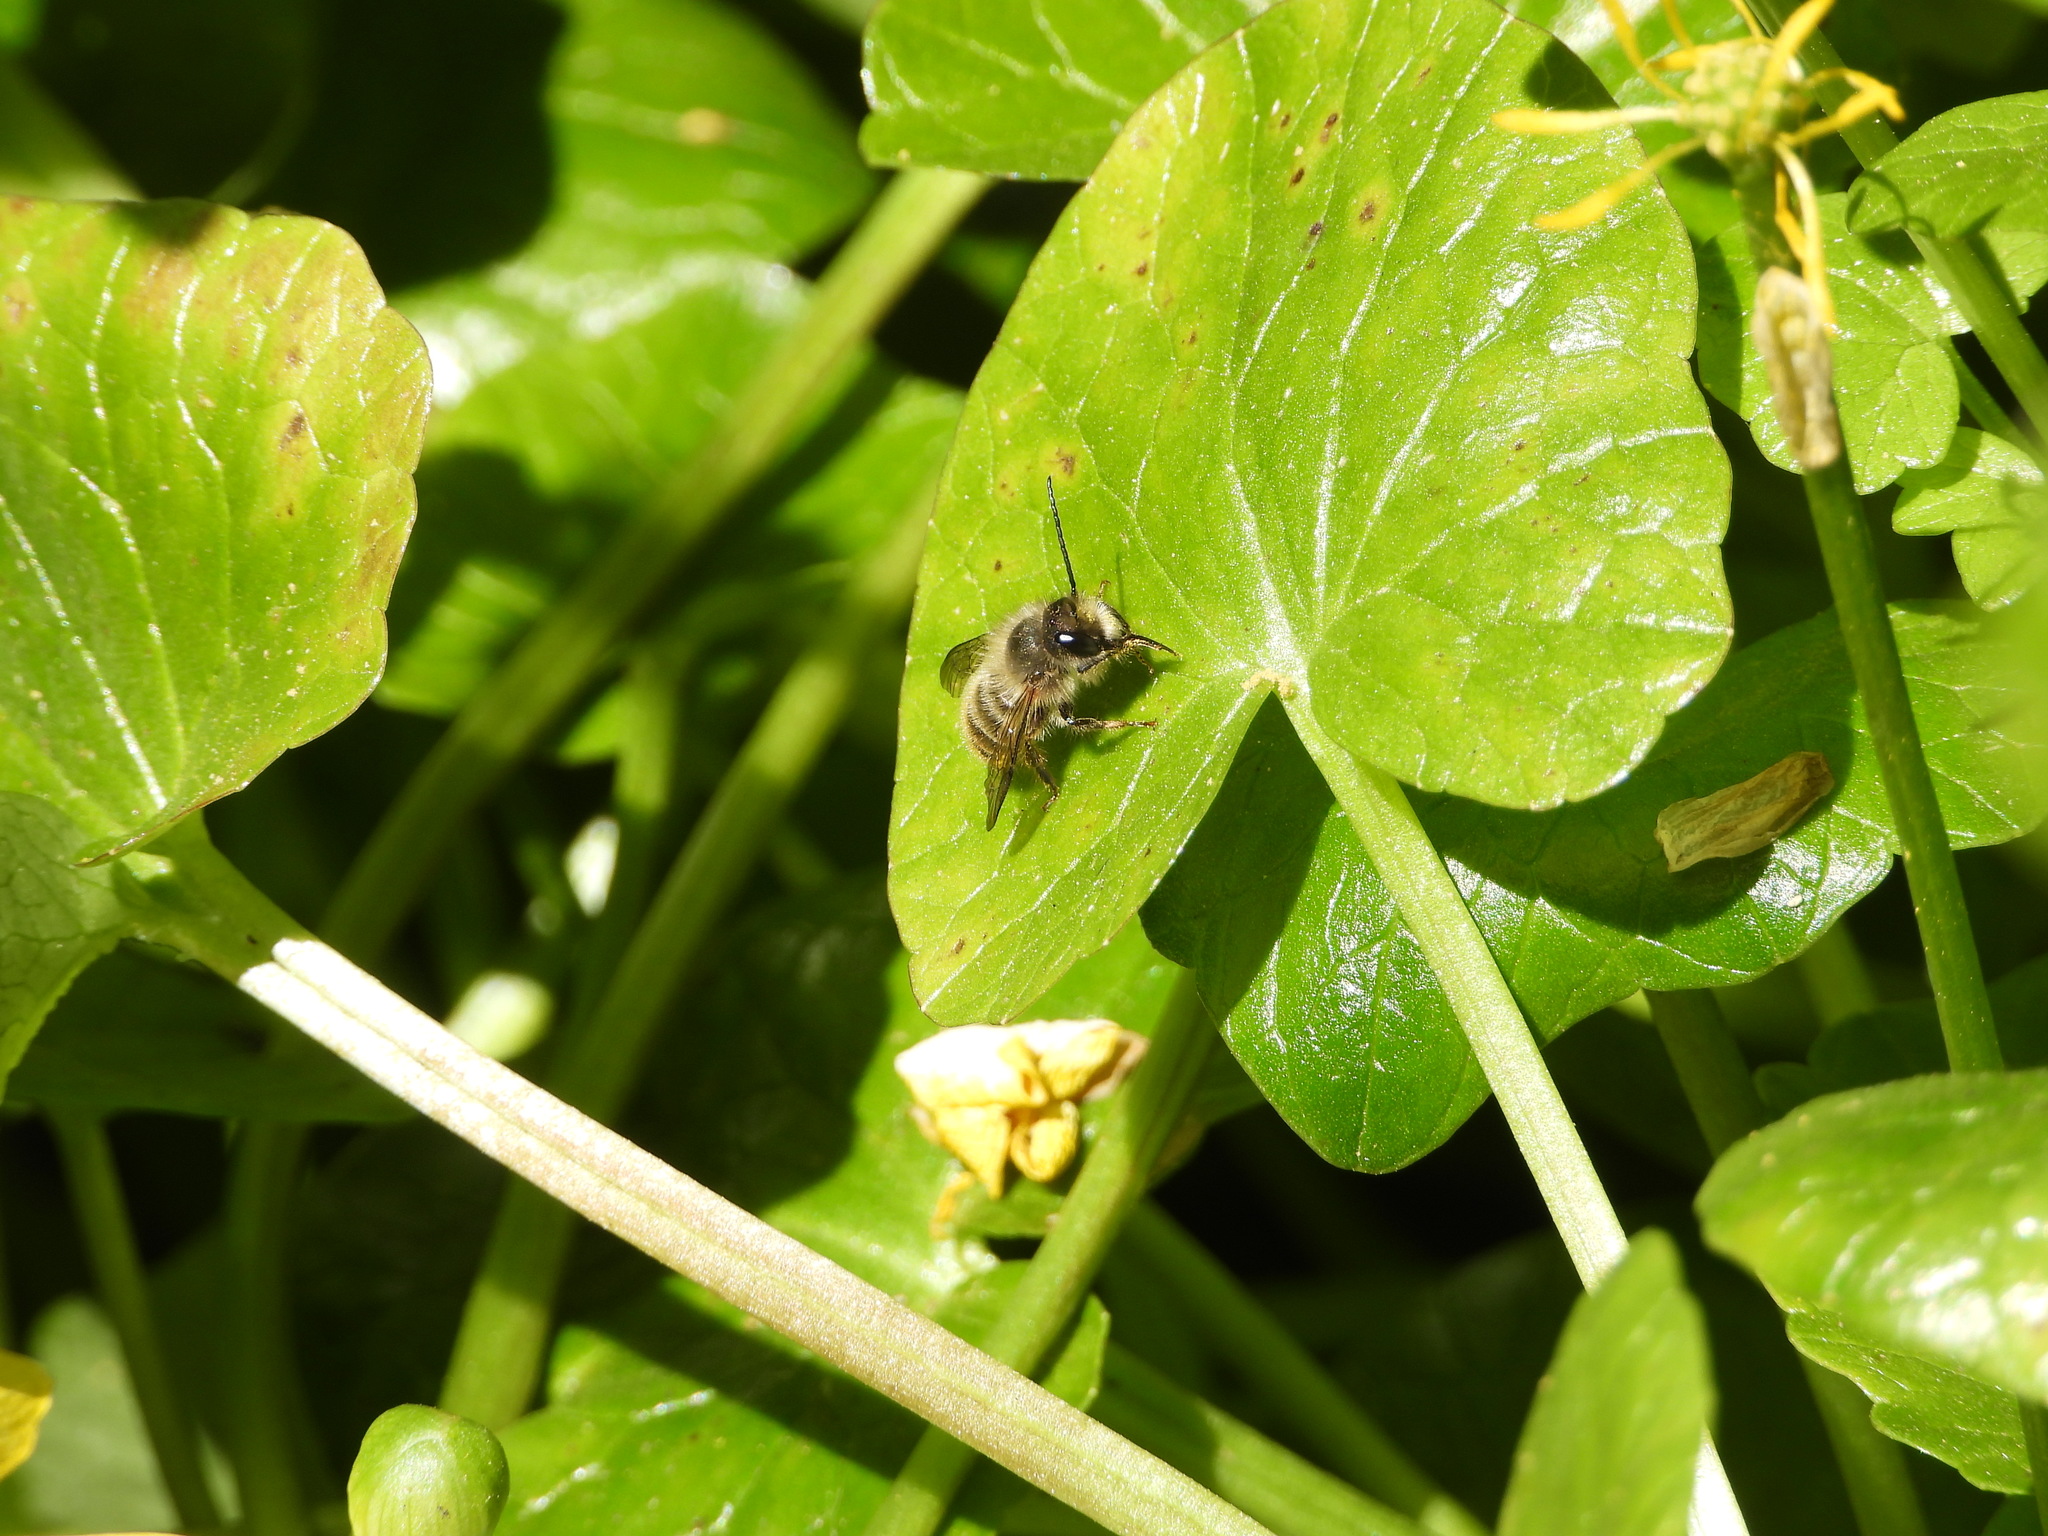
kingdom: Animalia
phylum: Arthropoda
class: Insecta
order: Hymenoptera
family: Megachilidae
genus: Osmia
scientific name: Osmia cornifrons
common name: Horn-faced bee
